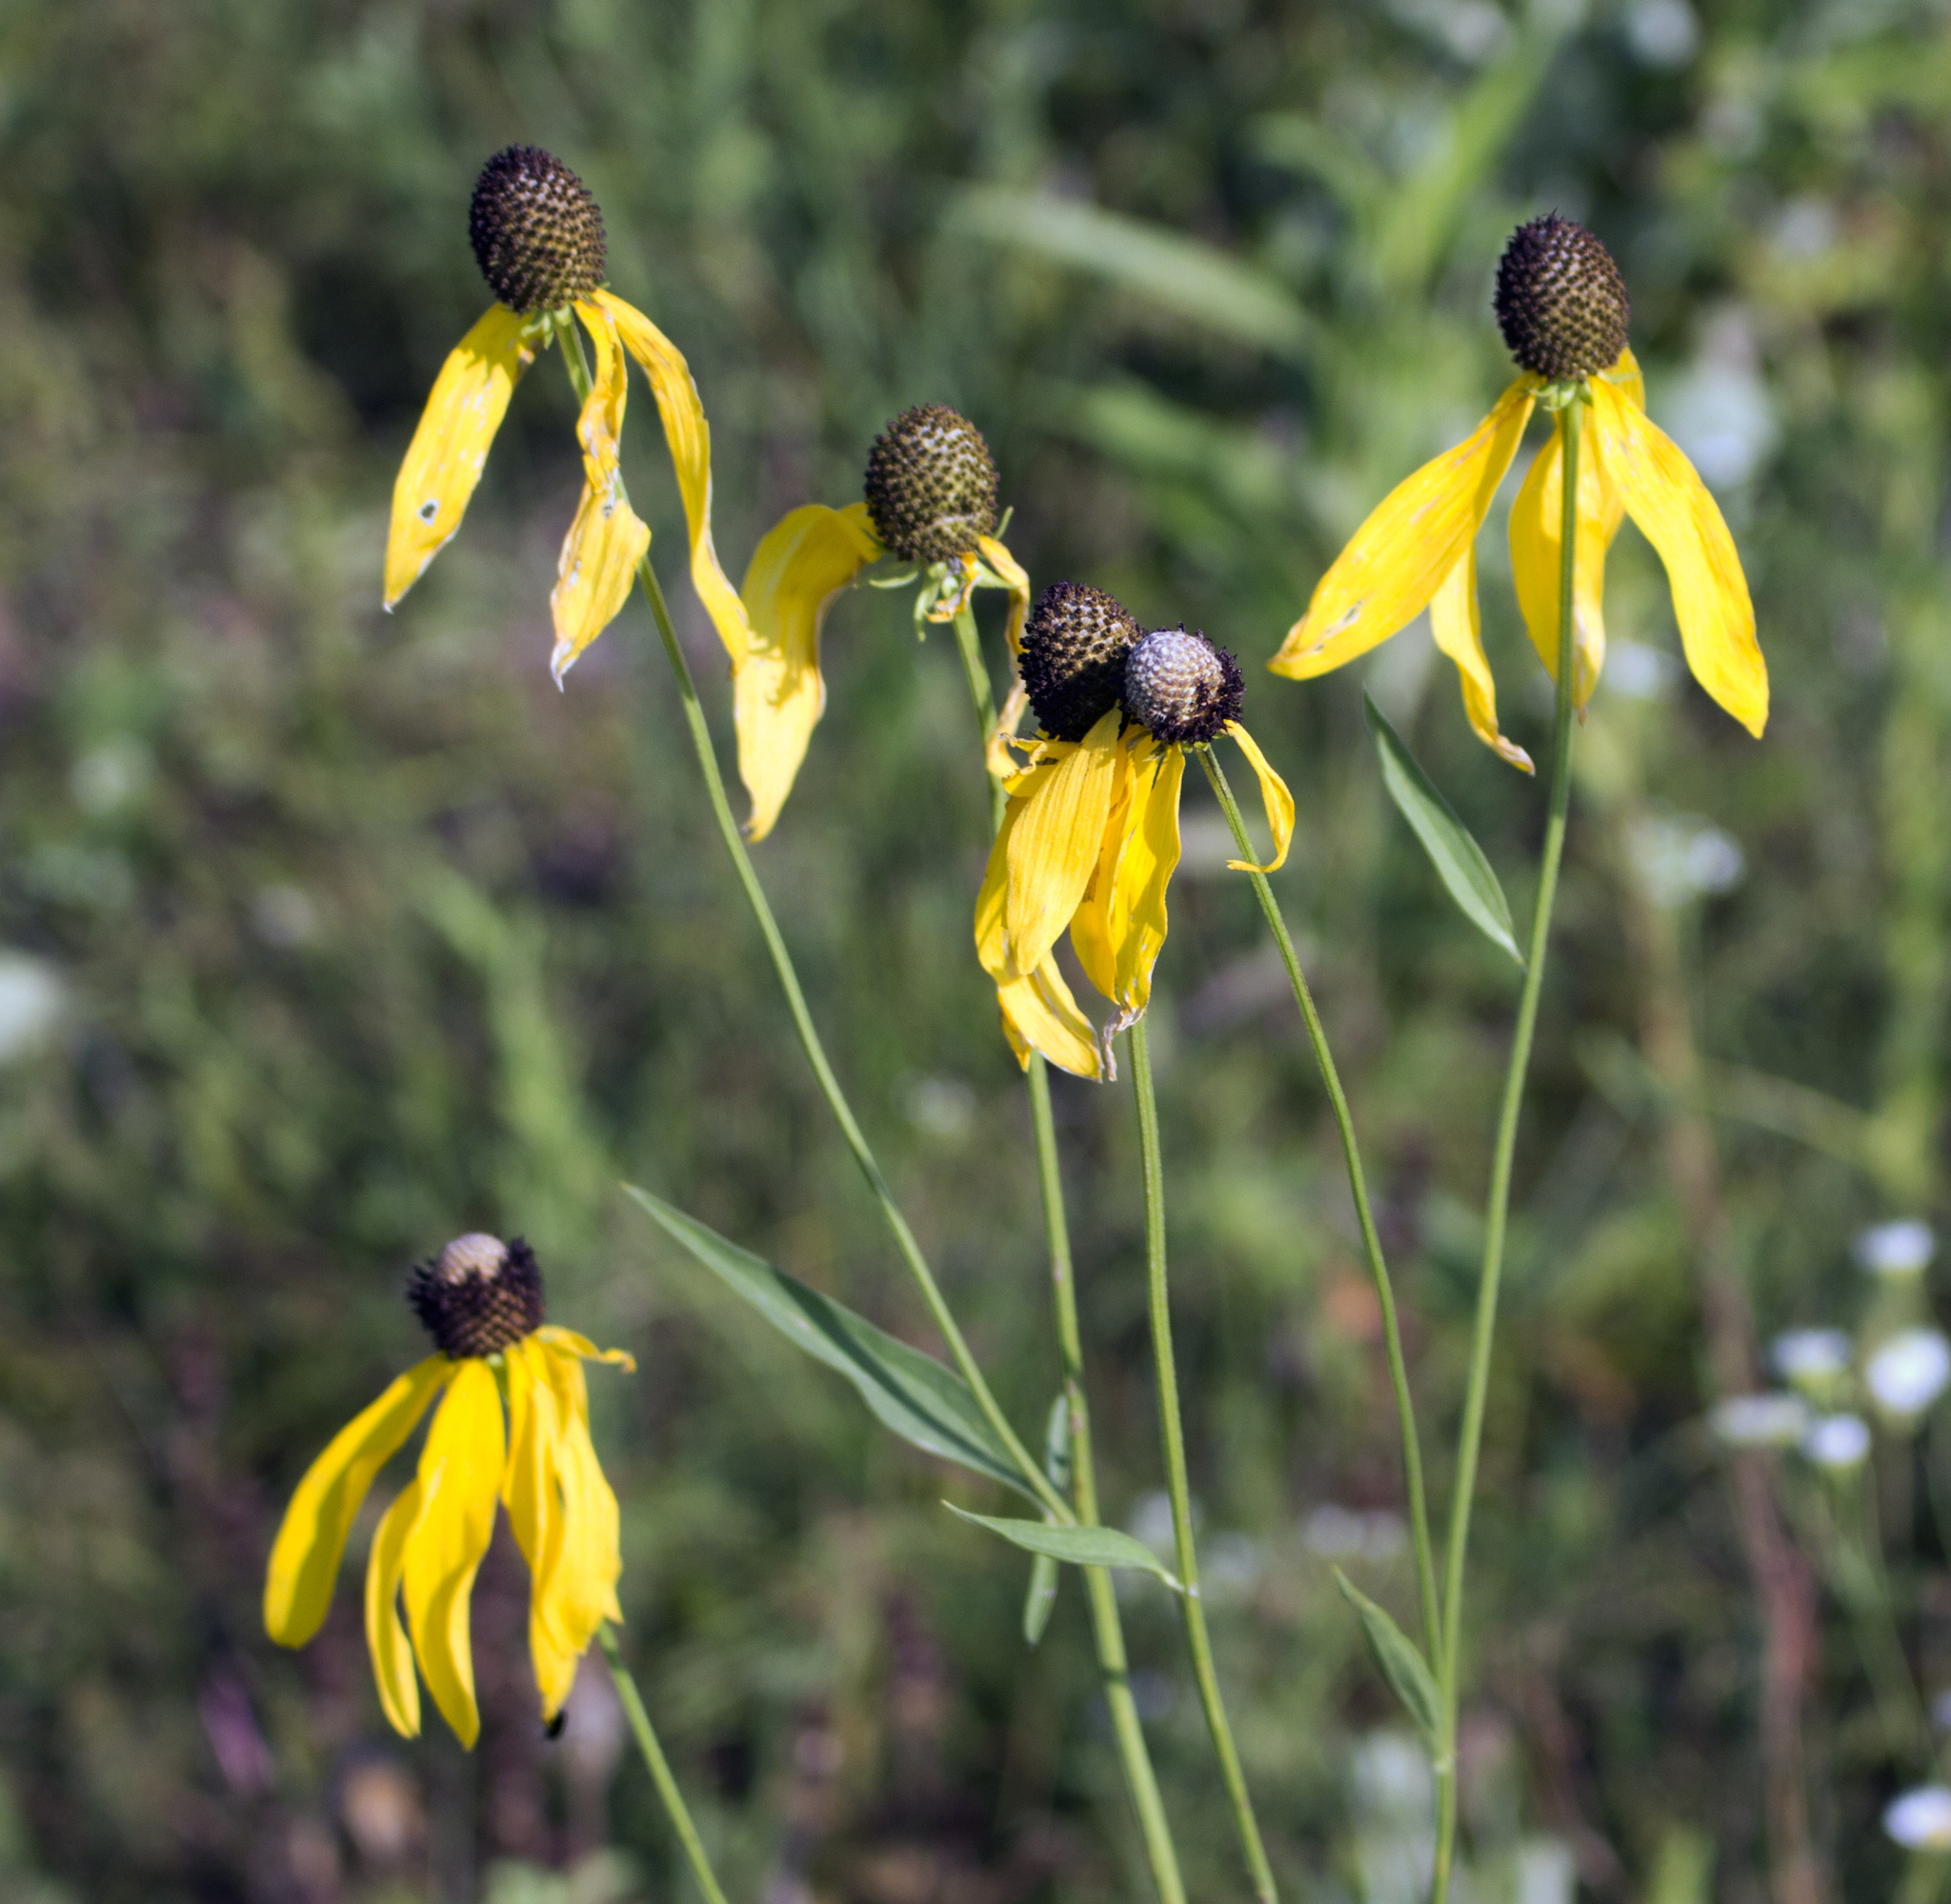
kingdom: Plantae
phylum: Tracheophyta
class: Magnoliopsida
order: Asterales
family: Asteraceae
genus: Ratibida
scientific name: Ratibida pinnata
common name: Drooping prairie-coneflower
